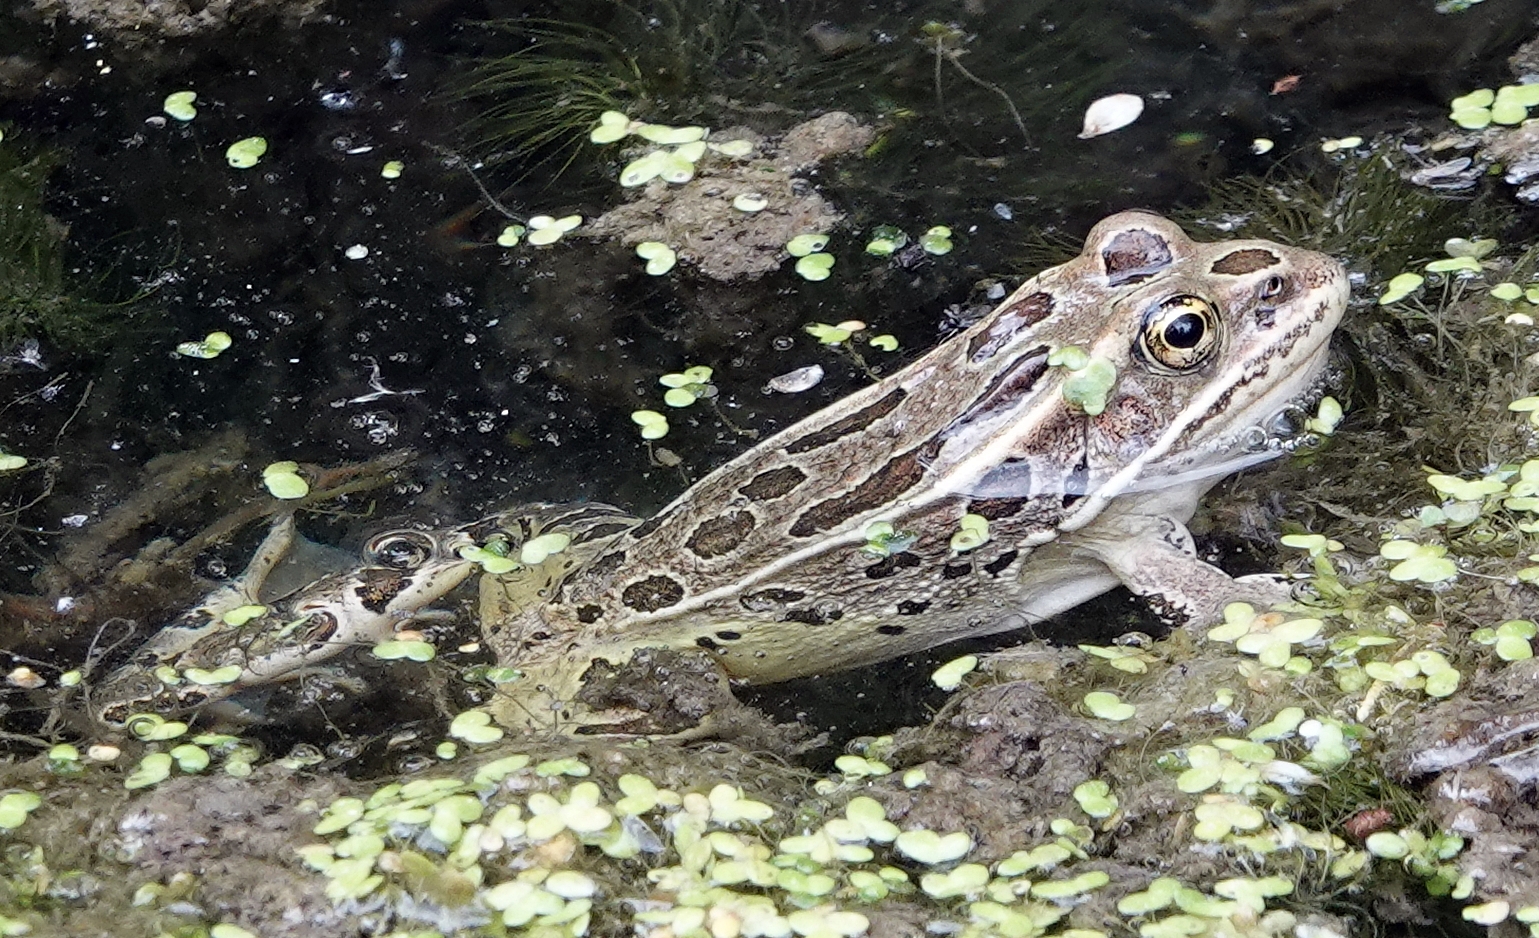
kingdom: Animalia
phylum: Chordata
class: Amphibia
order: Anura
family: Ranidae
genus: Lithobates
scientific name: Lithobates pipiens
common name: Northern leopard frog
